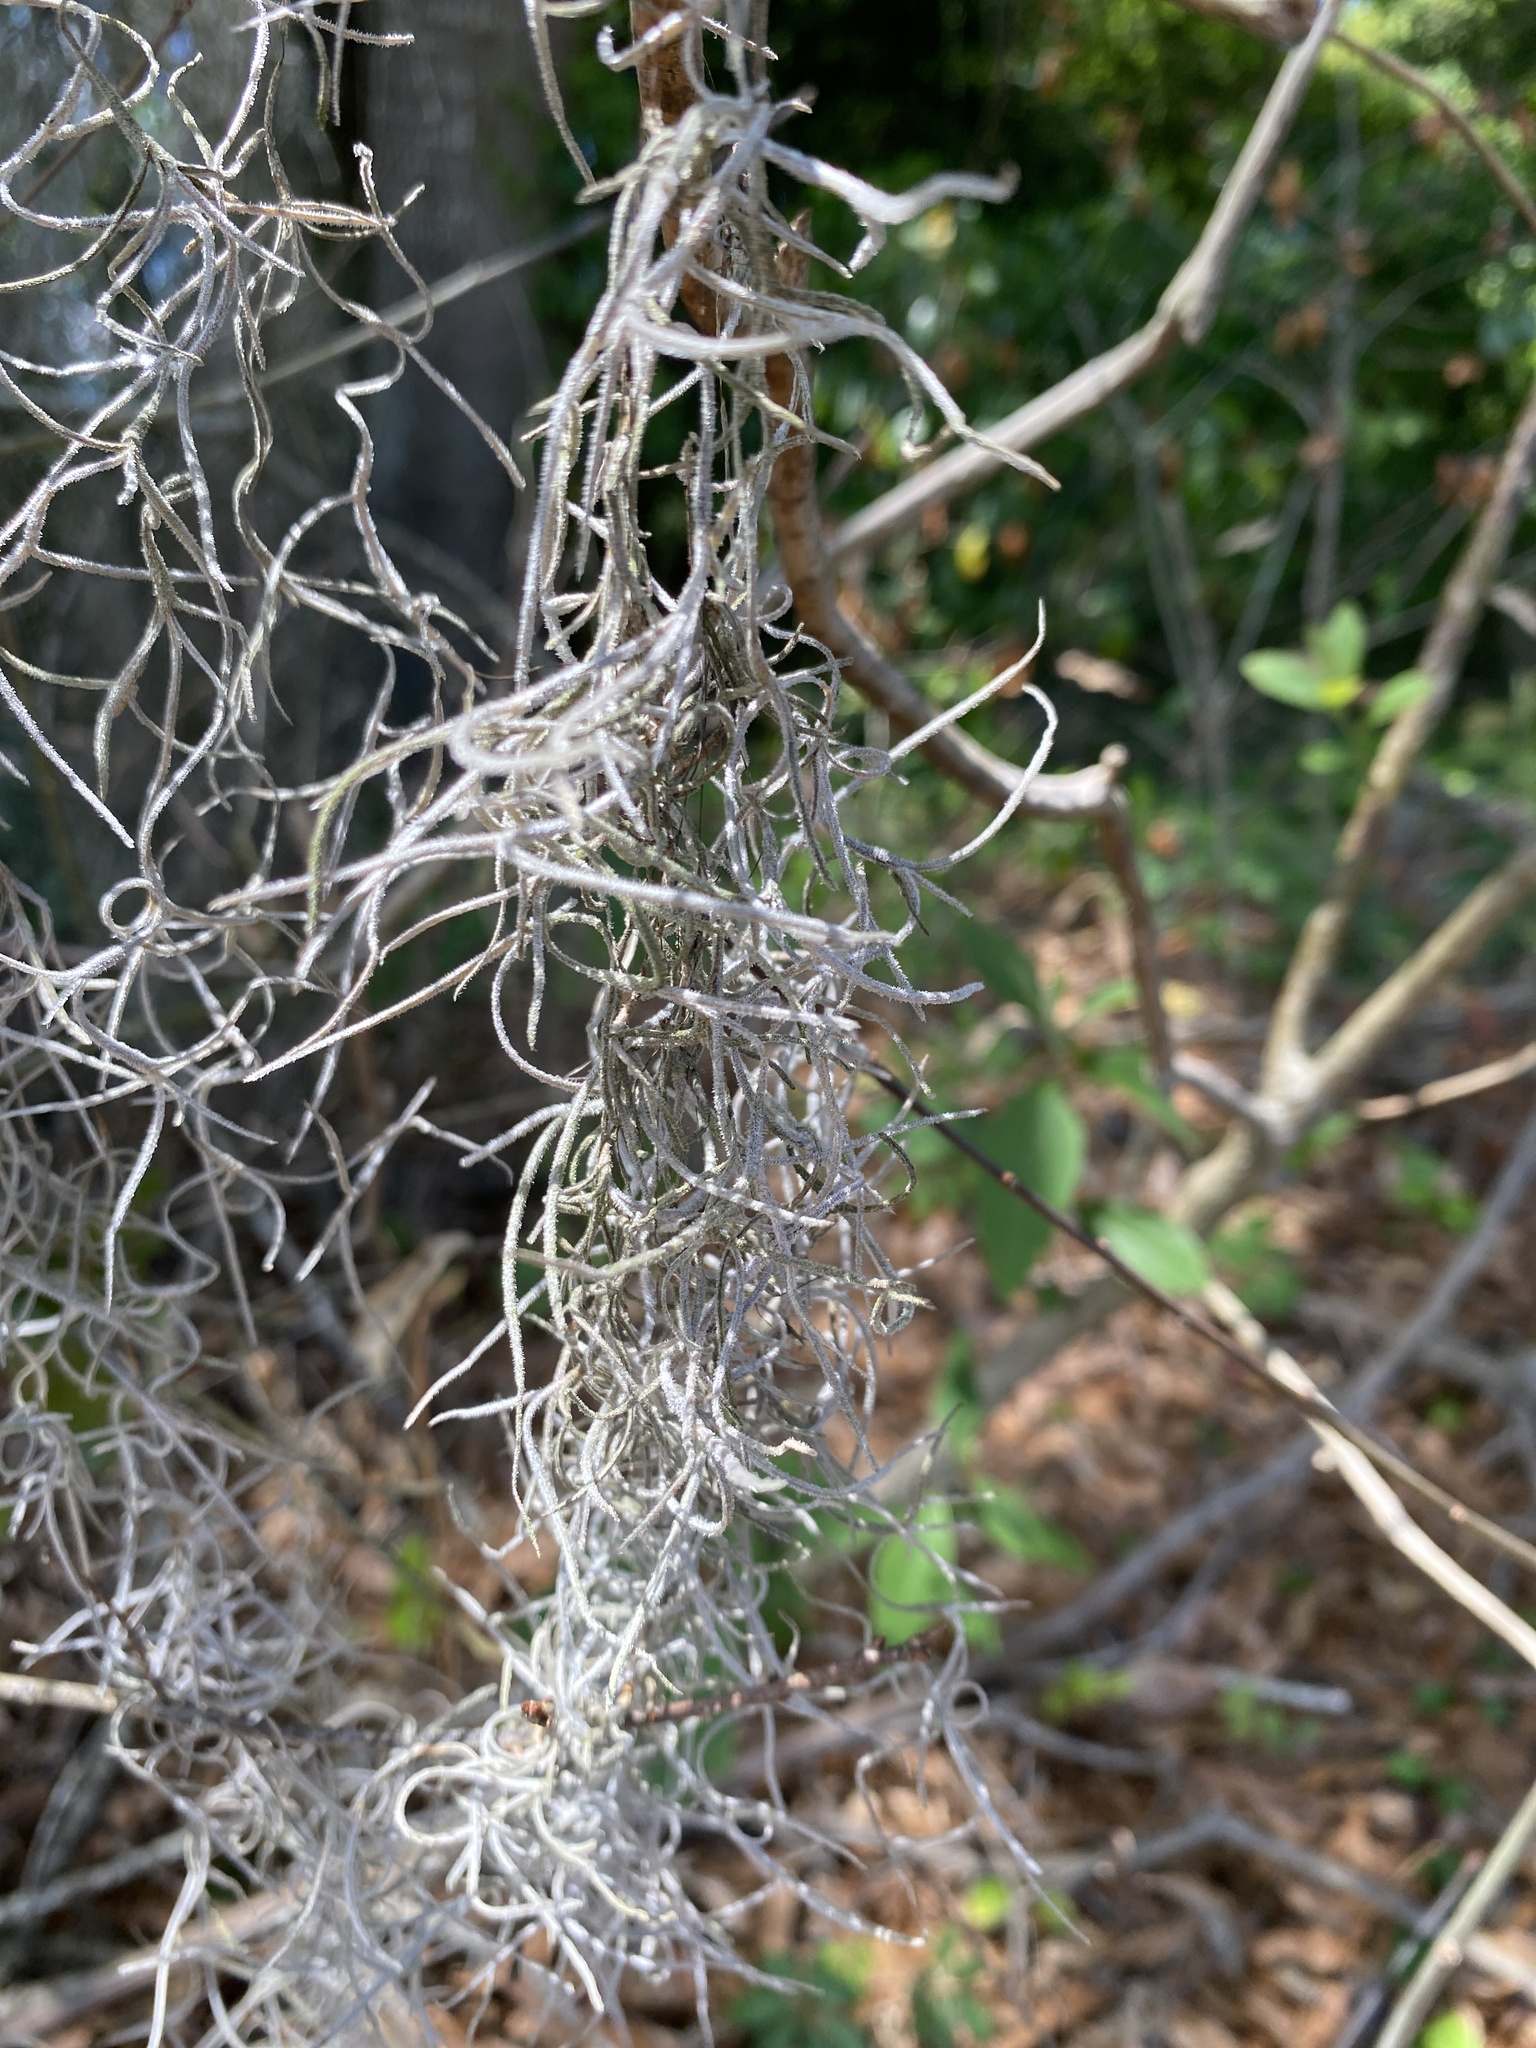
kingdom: Plantae
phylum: Tracheophyta
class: Liliopsida
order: Poales
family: Bromeliaceae
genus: Tillandsia
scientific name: Tillandsia usneoides
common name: Spanish moss
